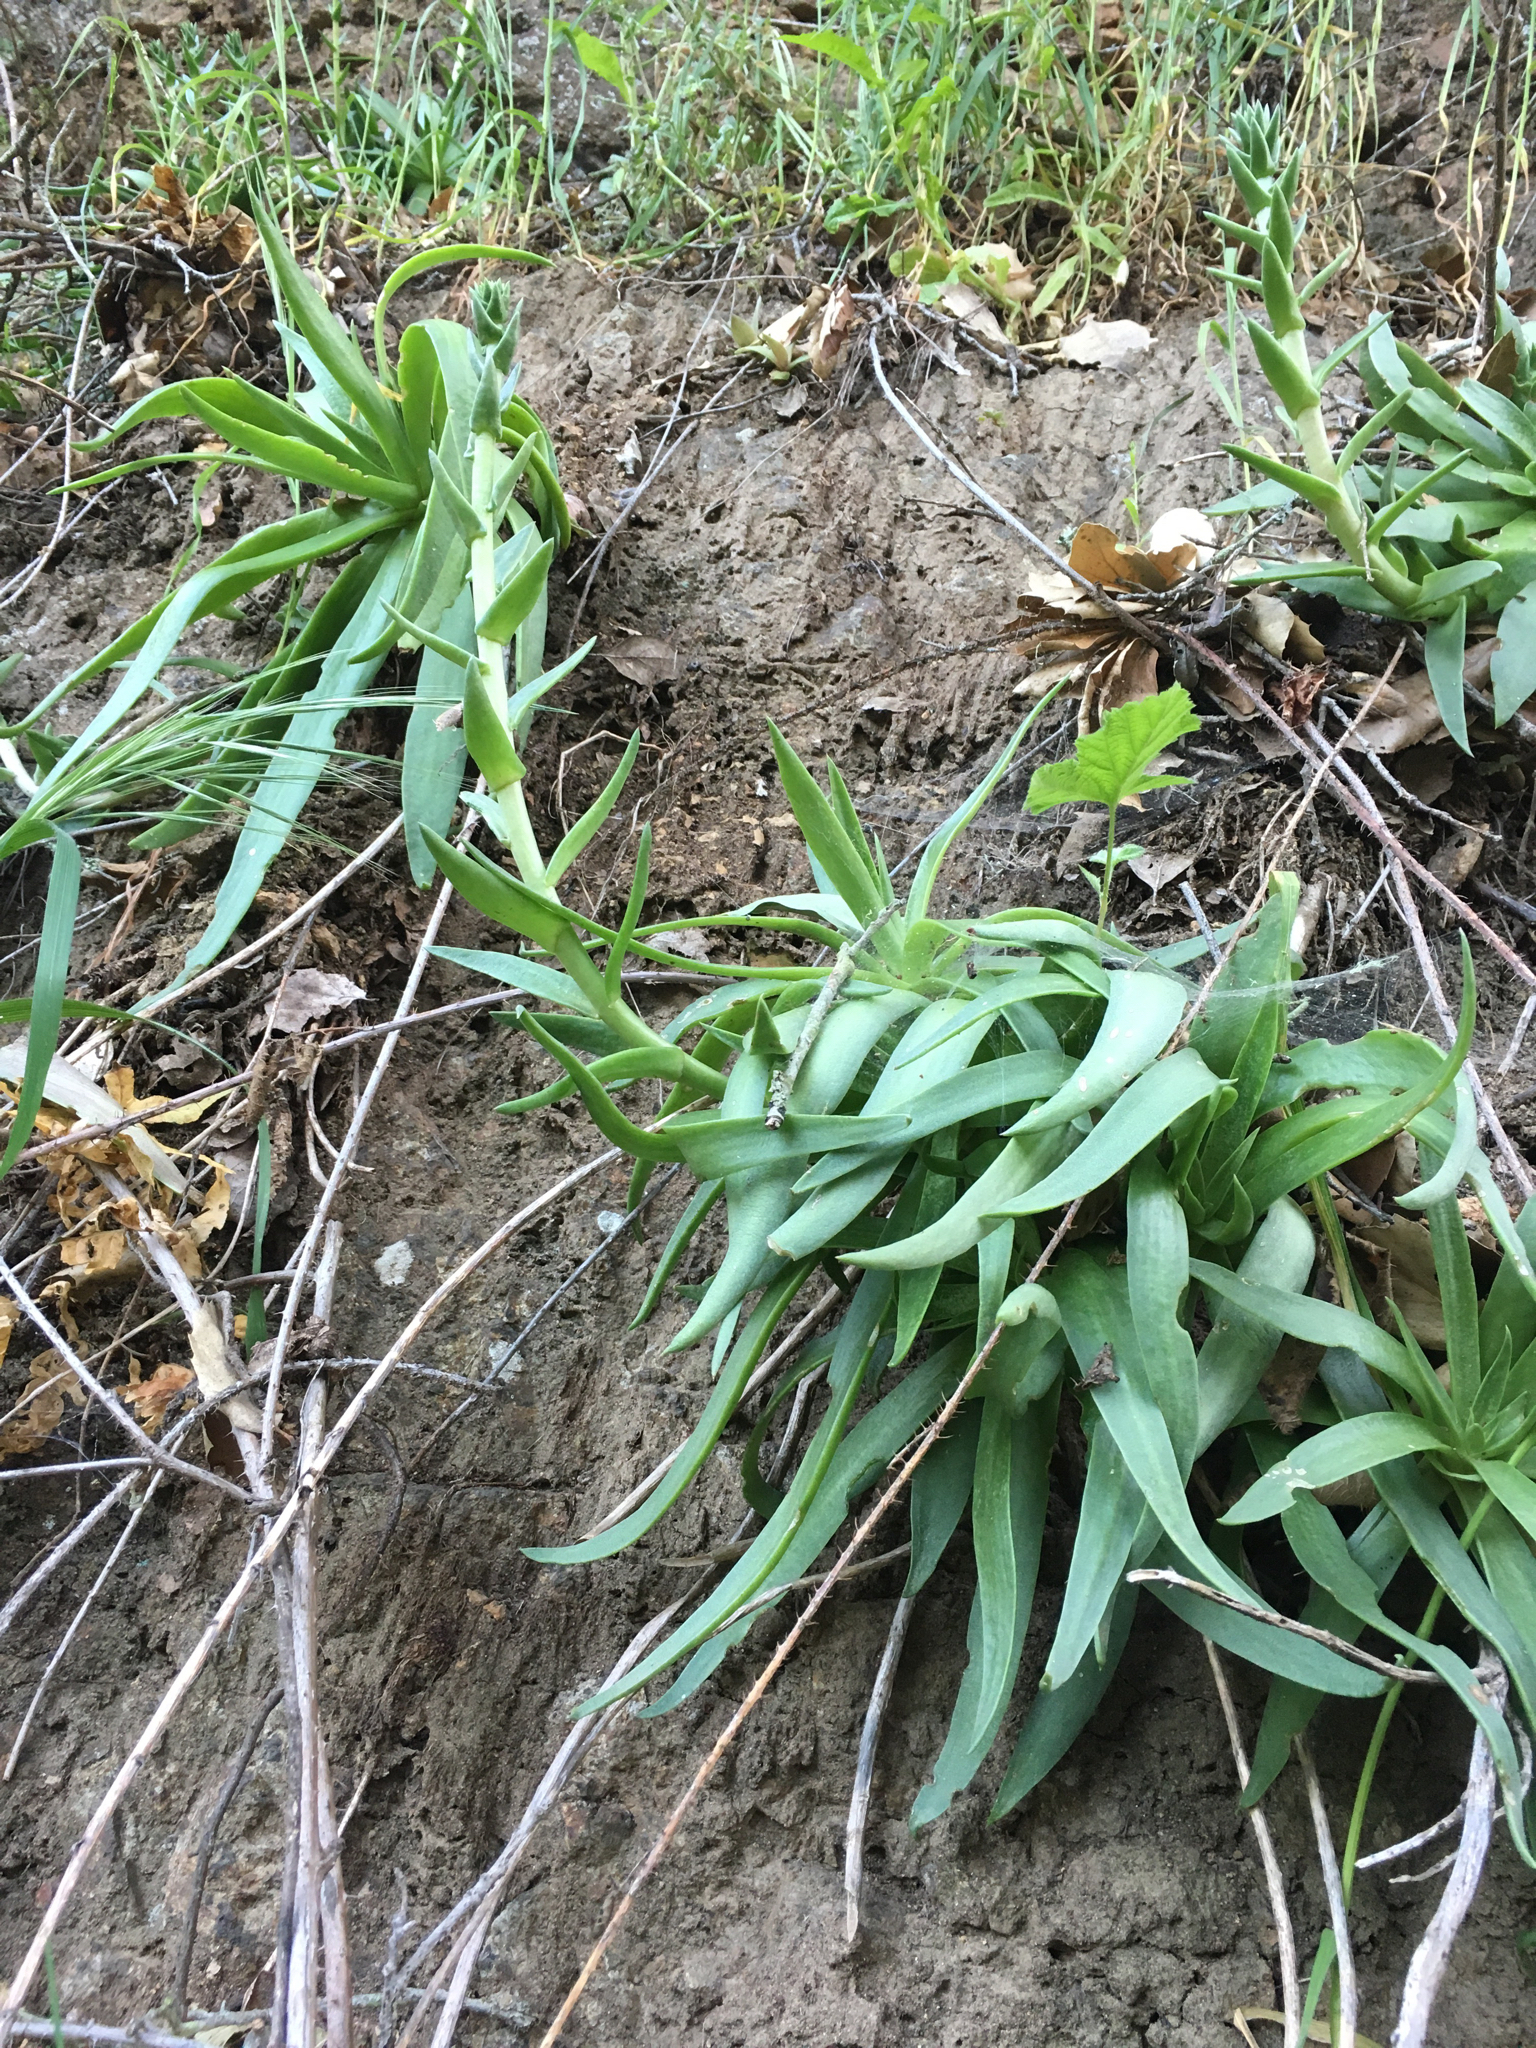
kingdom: Plantae
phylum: Tracheophyta
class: Magnoliopsida
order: Saxifragales
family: Crassulaceae
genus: Dudleya
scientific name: Dudleya lanceolata
